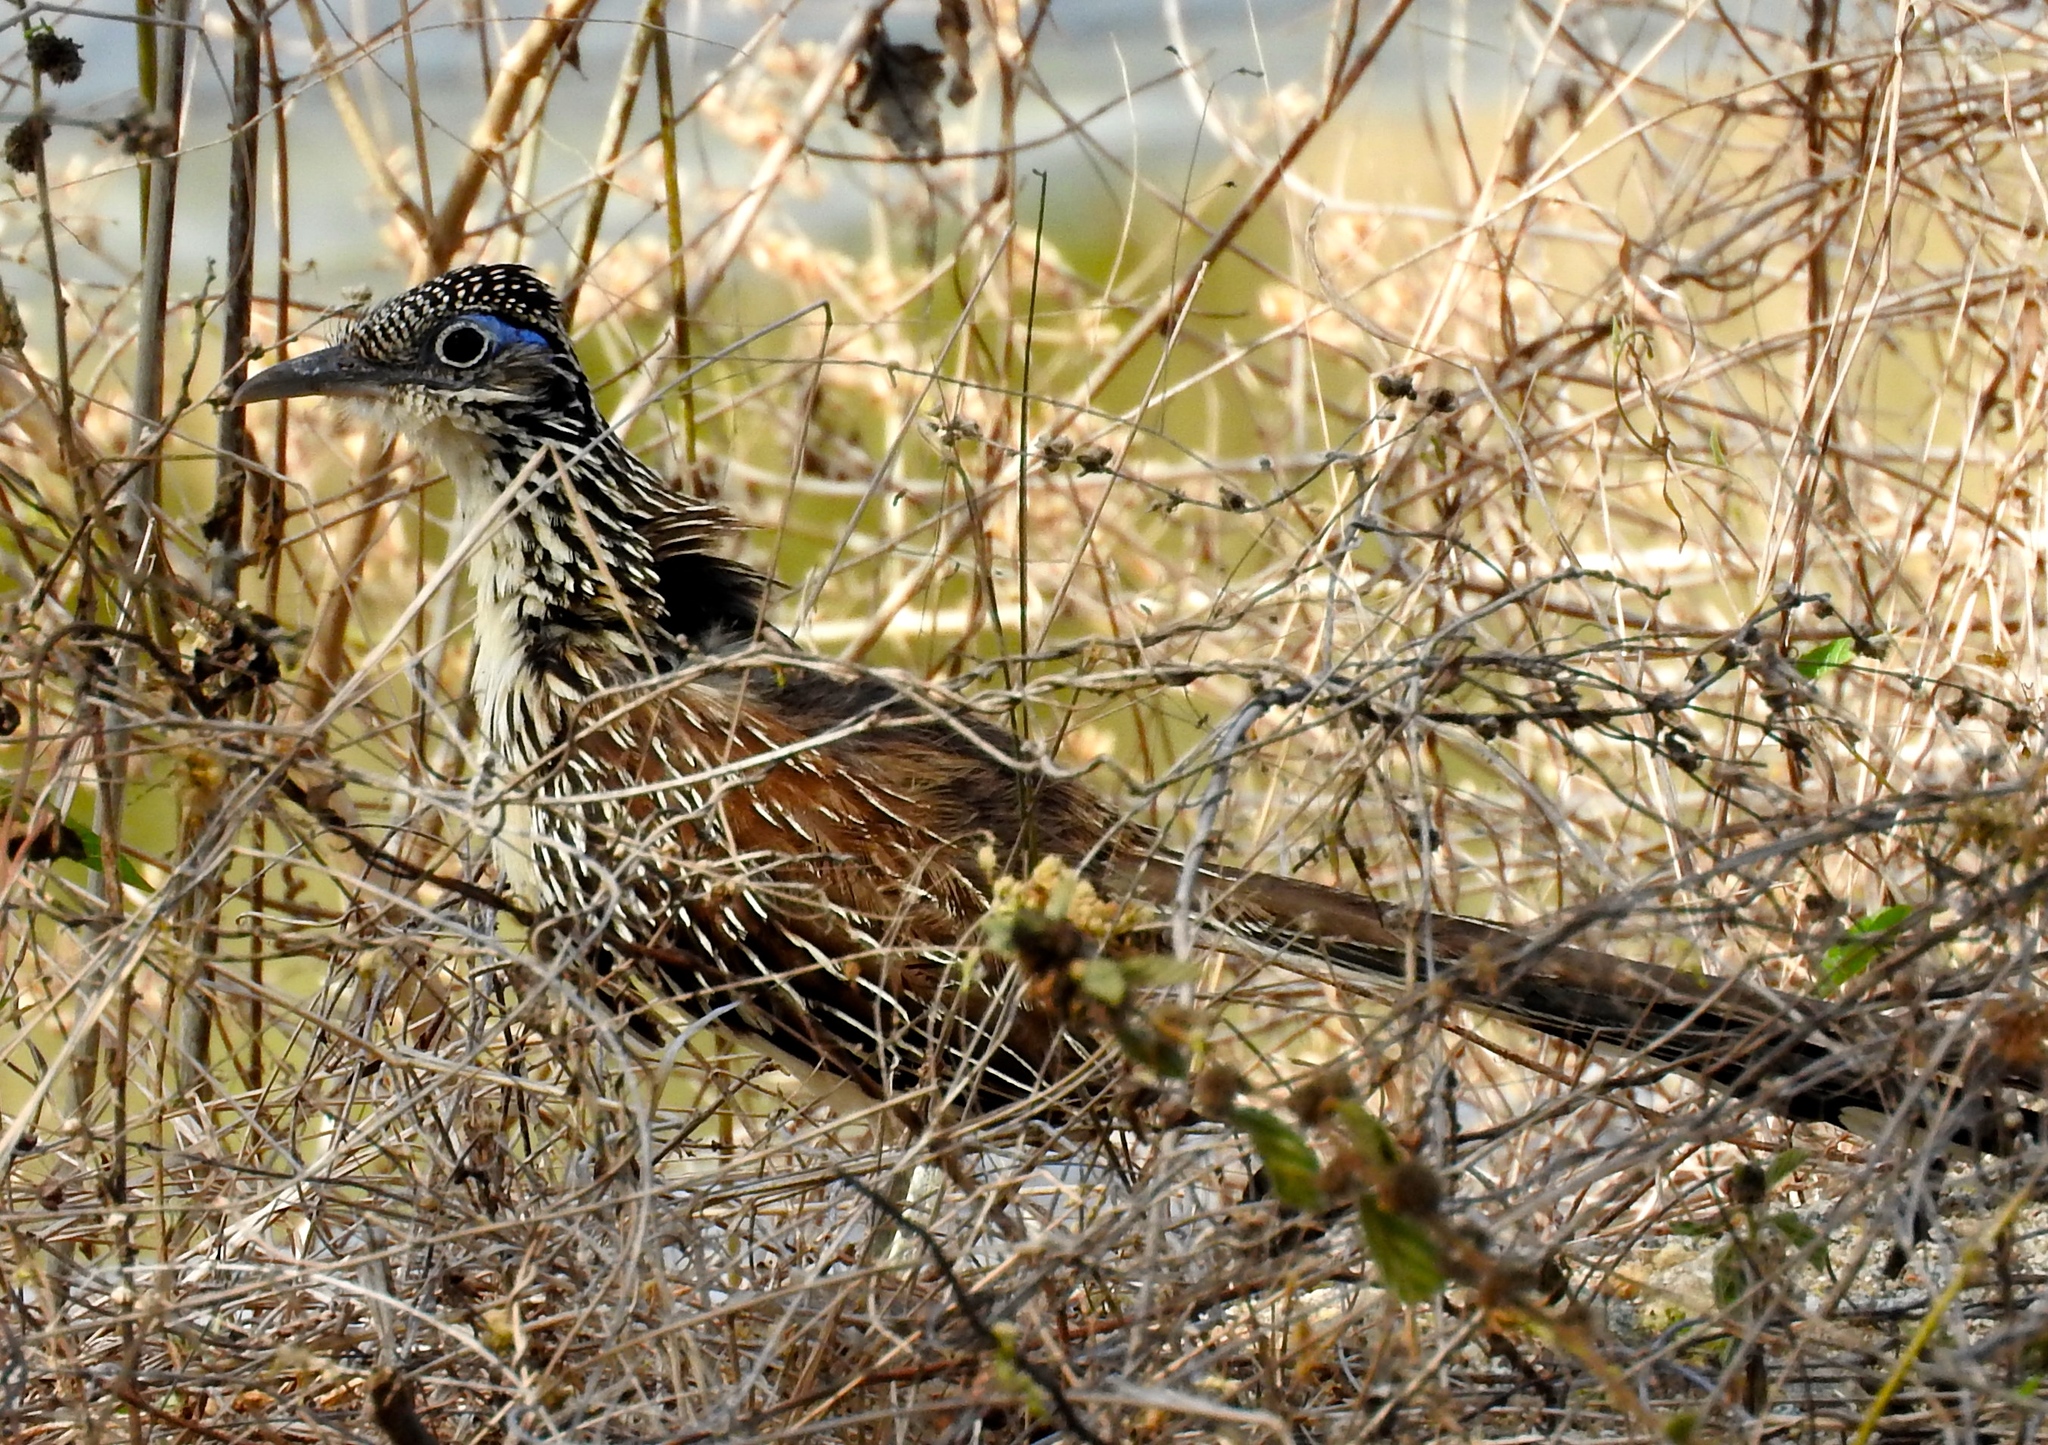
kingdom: Animalia
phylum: Chordata
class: Aves
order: Cuculiformes
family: Cuculidae
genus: Geococcyx
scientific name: Geococcyx velox
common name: Lesser roadrunner
